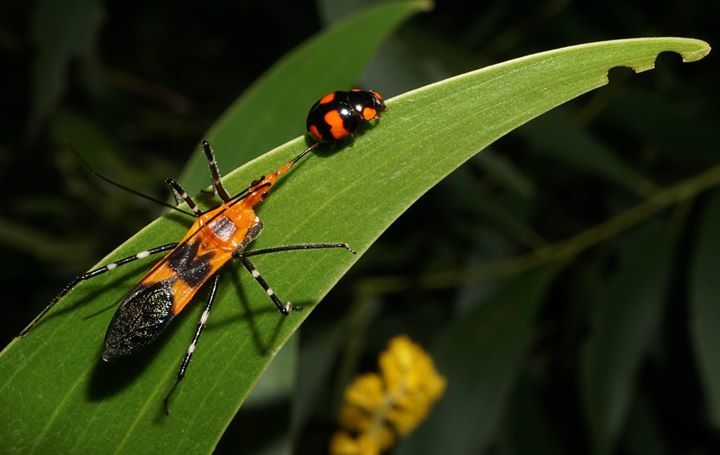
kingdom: Animalia
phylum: Arthropoda
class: Insecta
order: Hemiptera
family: Reduviidae
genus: Zelus
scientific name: Zelus longipes
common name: Milkweed assassin bug
